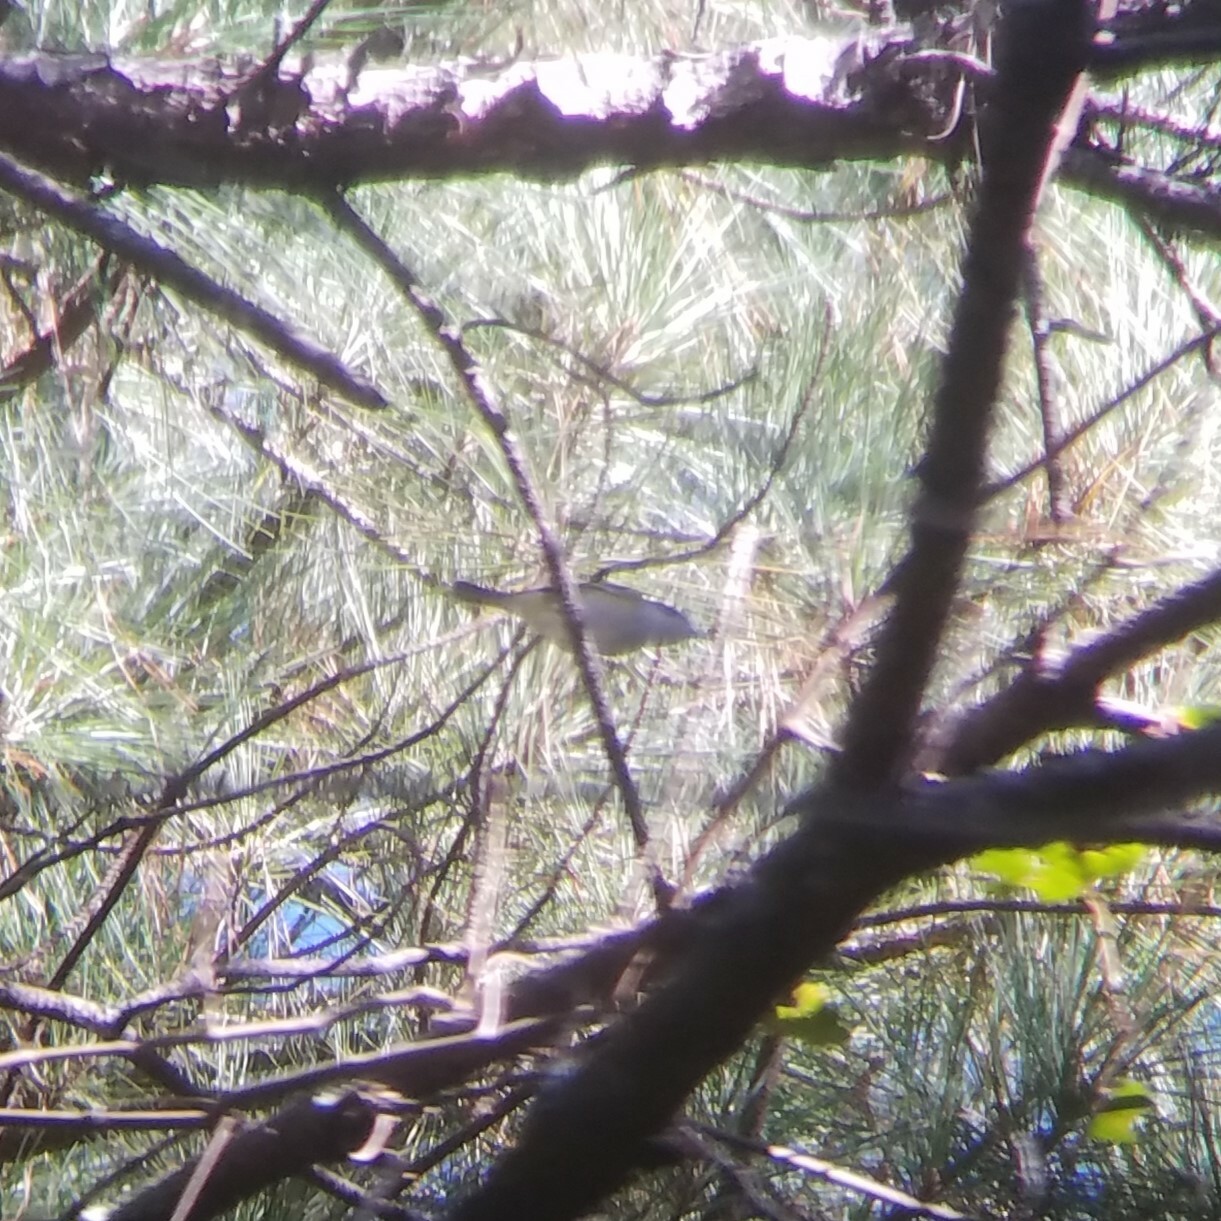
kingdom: Animalia
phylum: Chordata
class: Aves
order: Passeriformes
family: Vireonidae
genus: Vireo
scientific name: Vireo solitarius
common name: Blue-headed vireo
